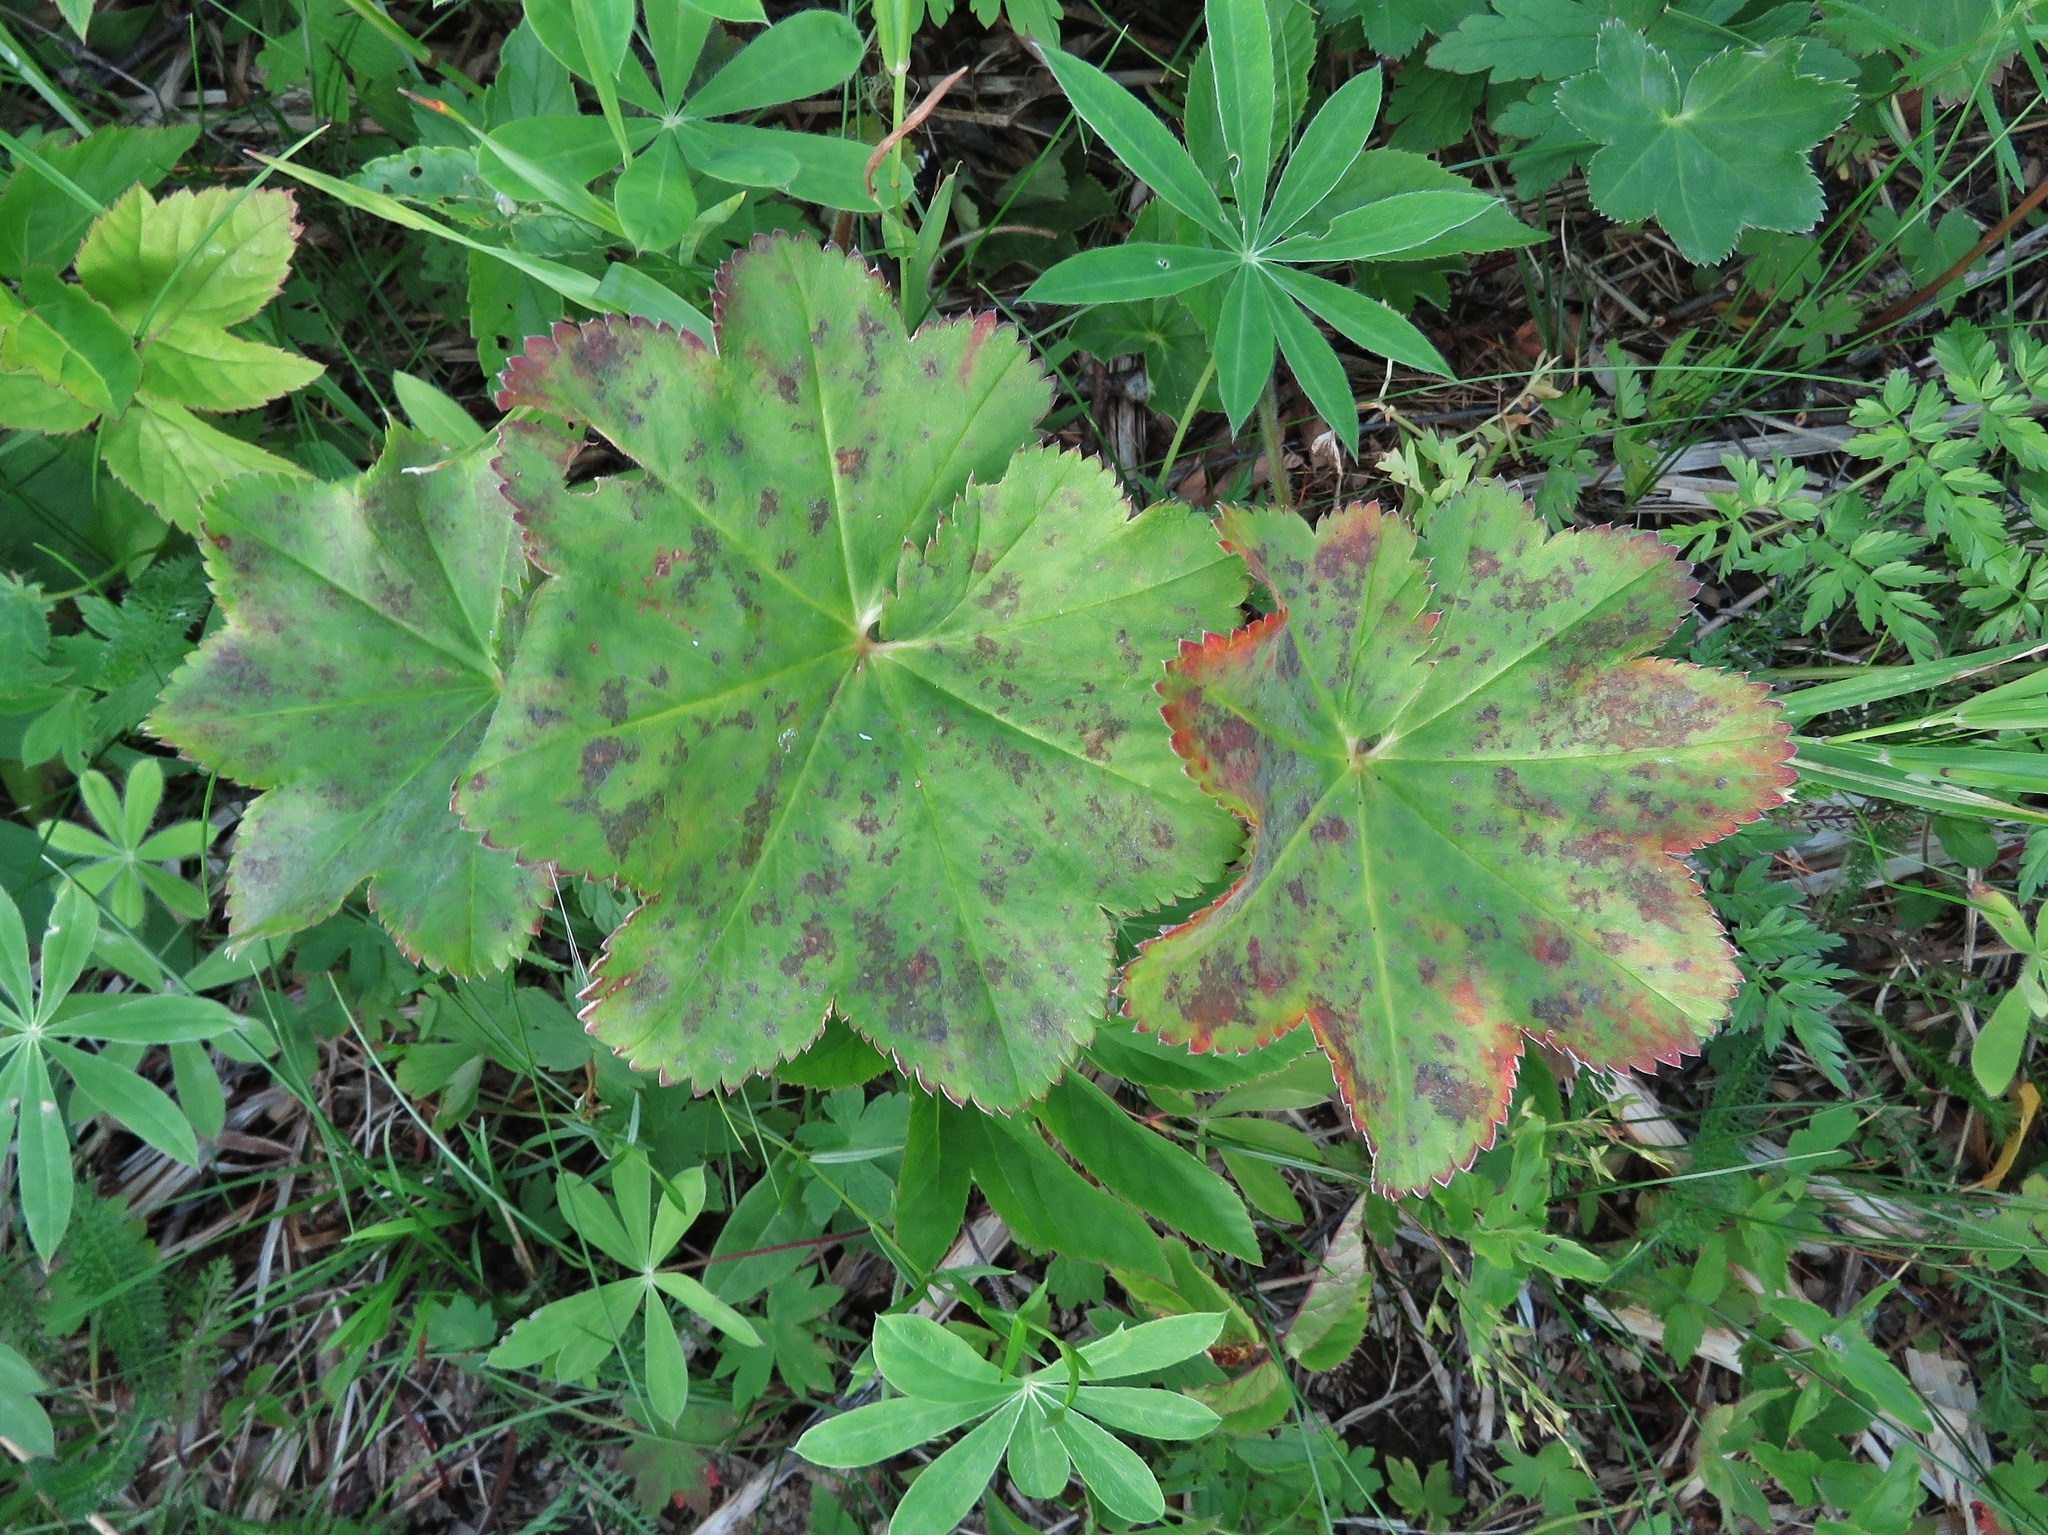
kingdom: Plantae
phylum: Tracheophyta
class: Magnoliopsida
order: Rosales
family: Rosaceae
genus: Alchemilla
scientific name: Alchemilla vulgaris
